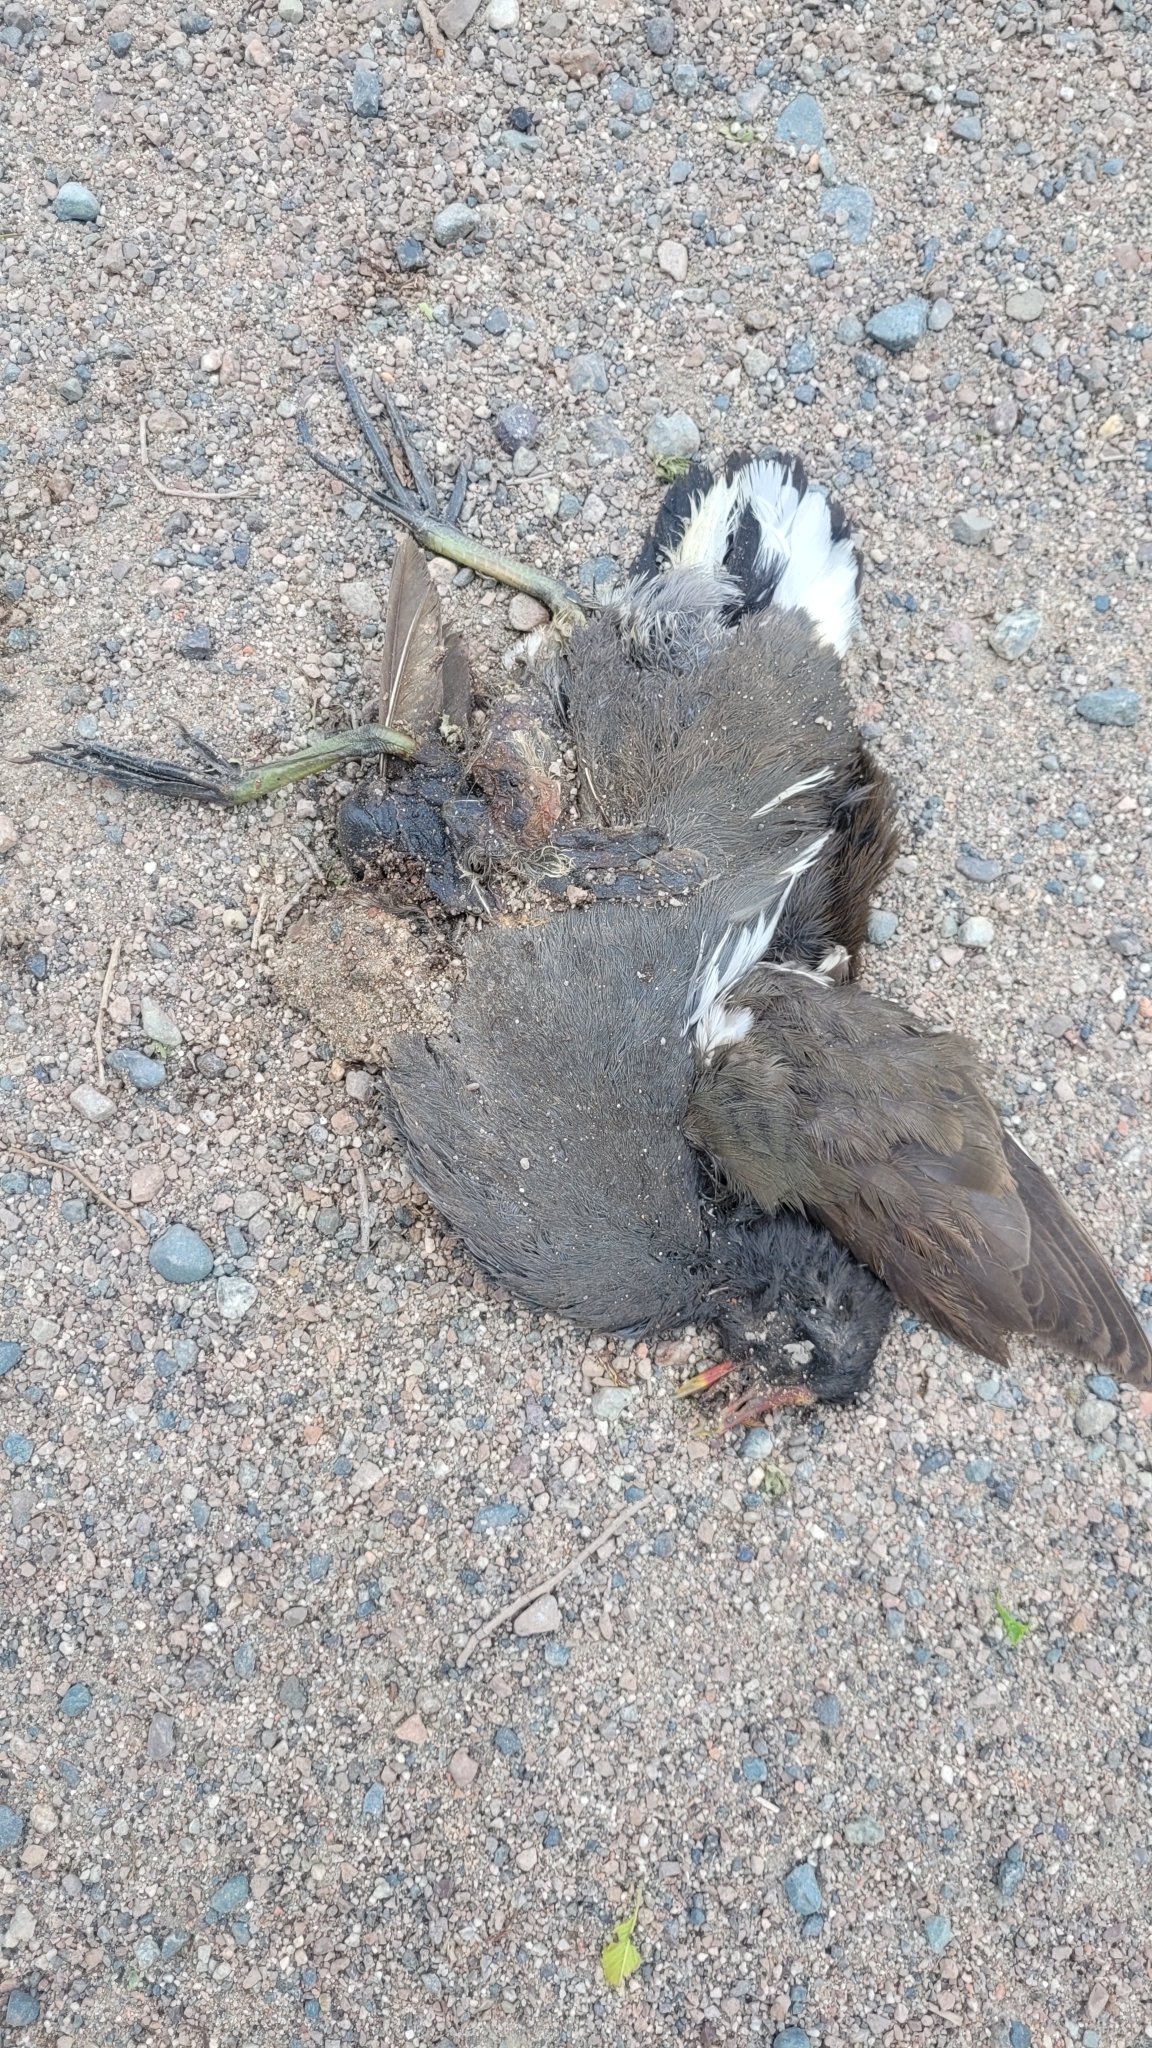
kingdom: Animalia
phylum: Chordata
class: Aves
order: Gruiformes
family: Rallidae
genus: Gallinula
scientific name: Gallinula chloropus
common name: Common moorhen
